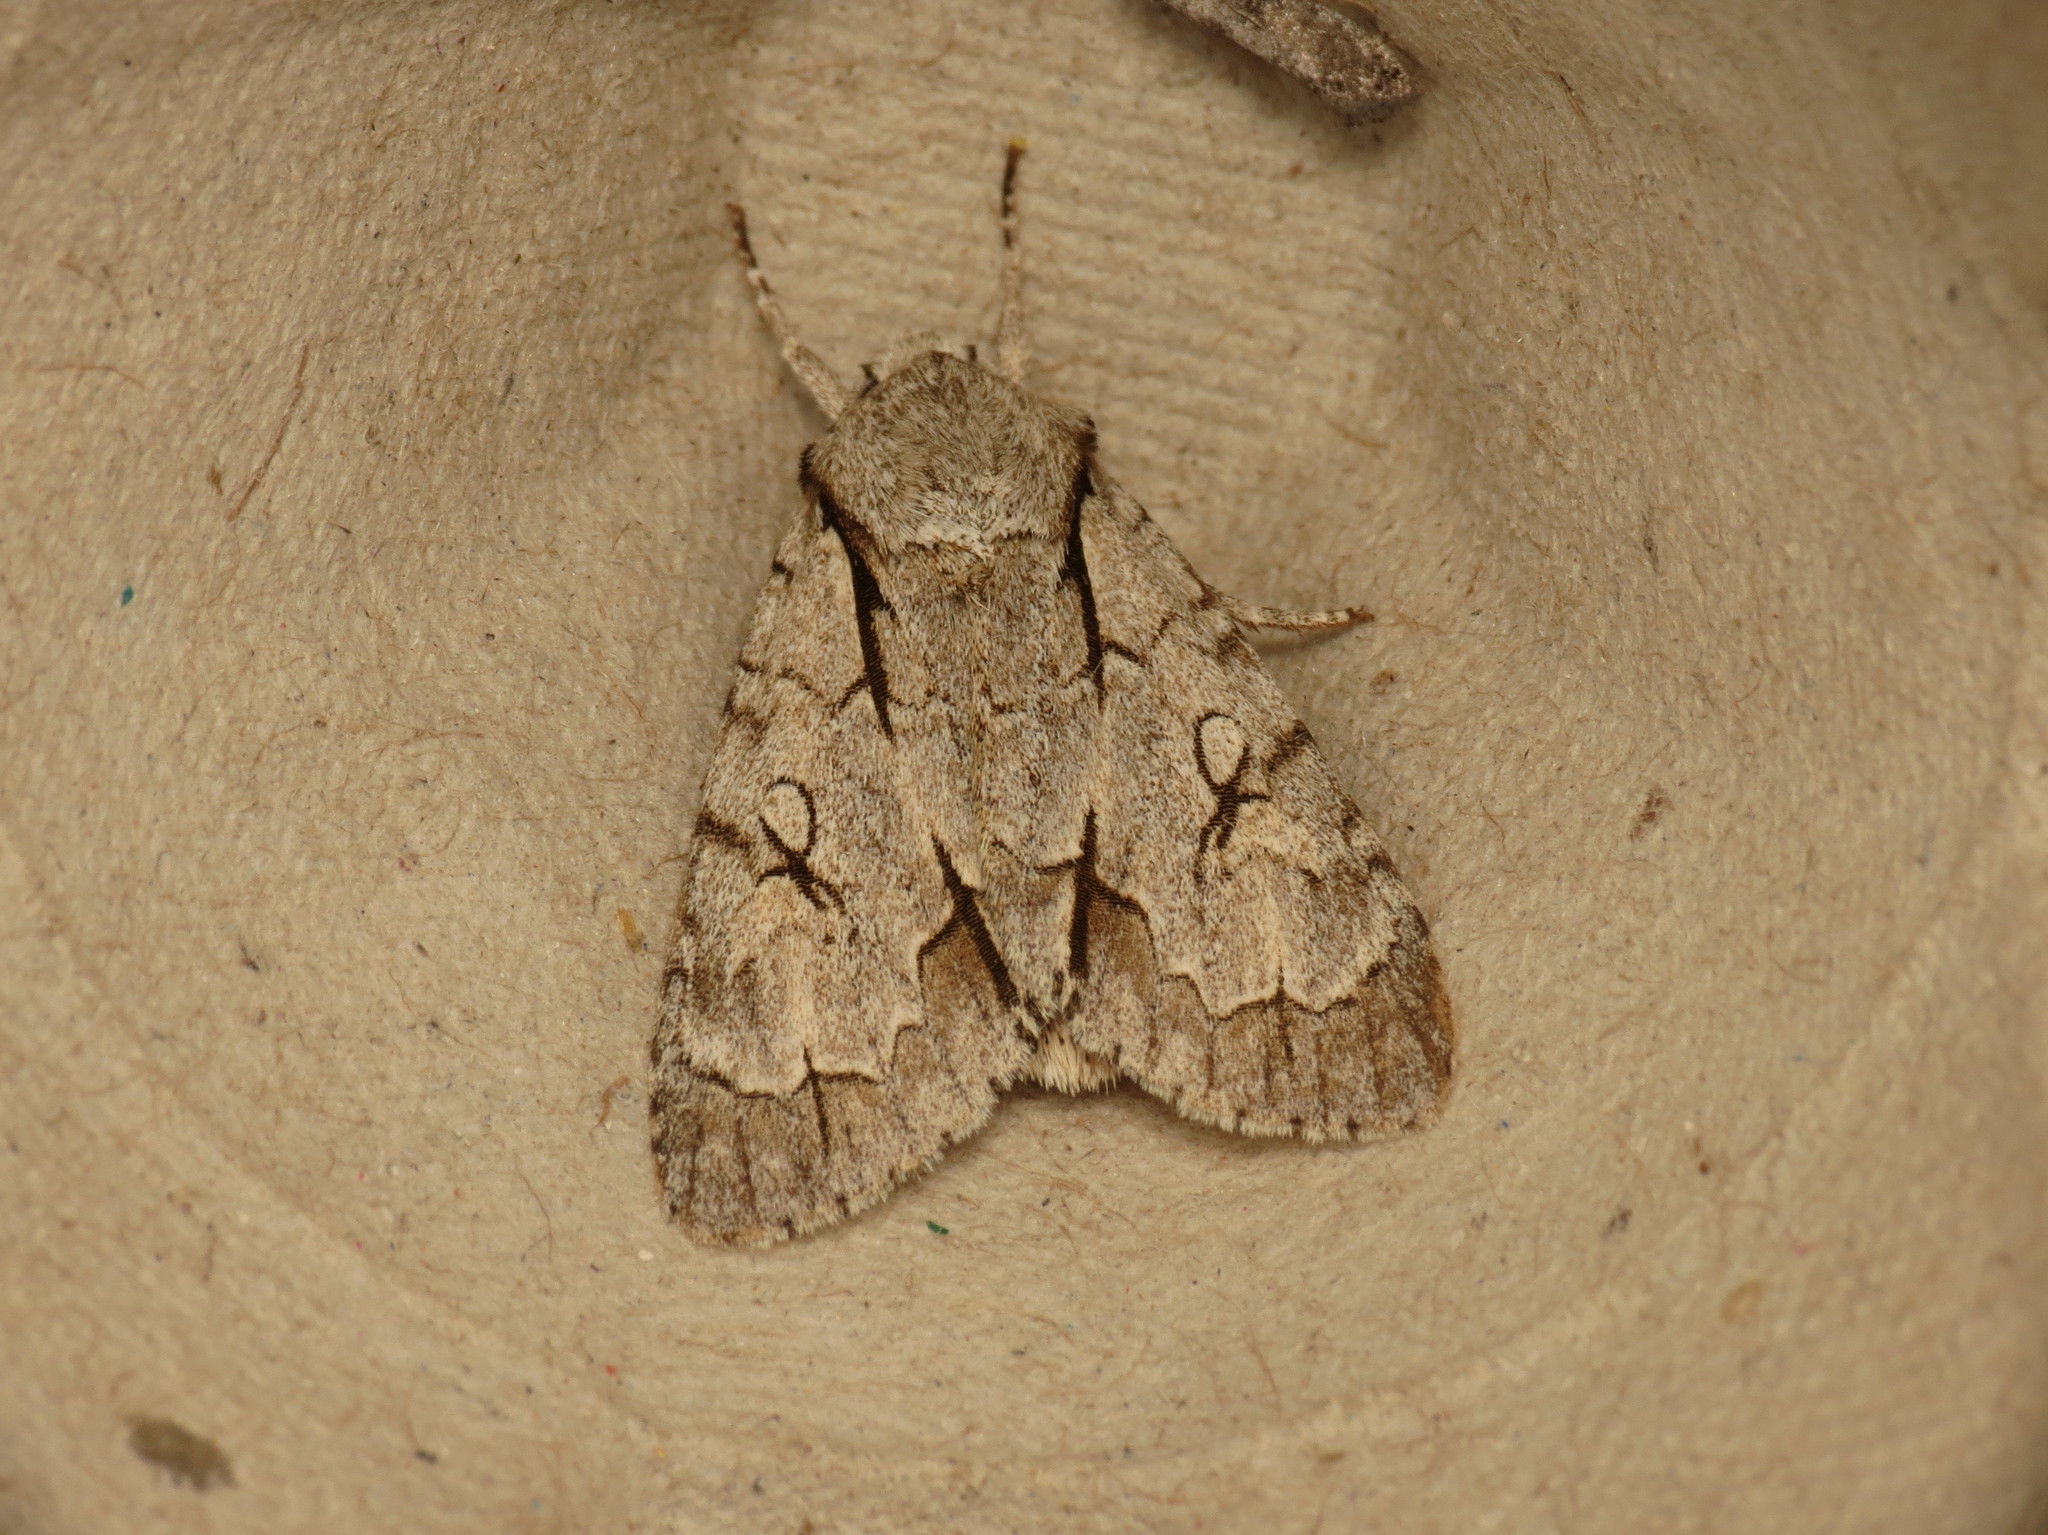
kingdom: Animalia
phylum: Arthropoda
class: Insecta
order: Lepidoptera
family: Noctuidae
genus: Acronicta
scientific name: Acronicta
